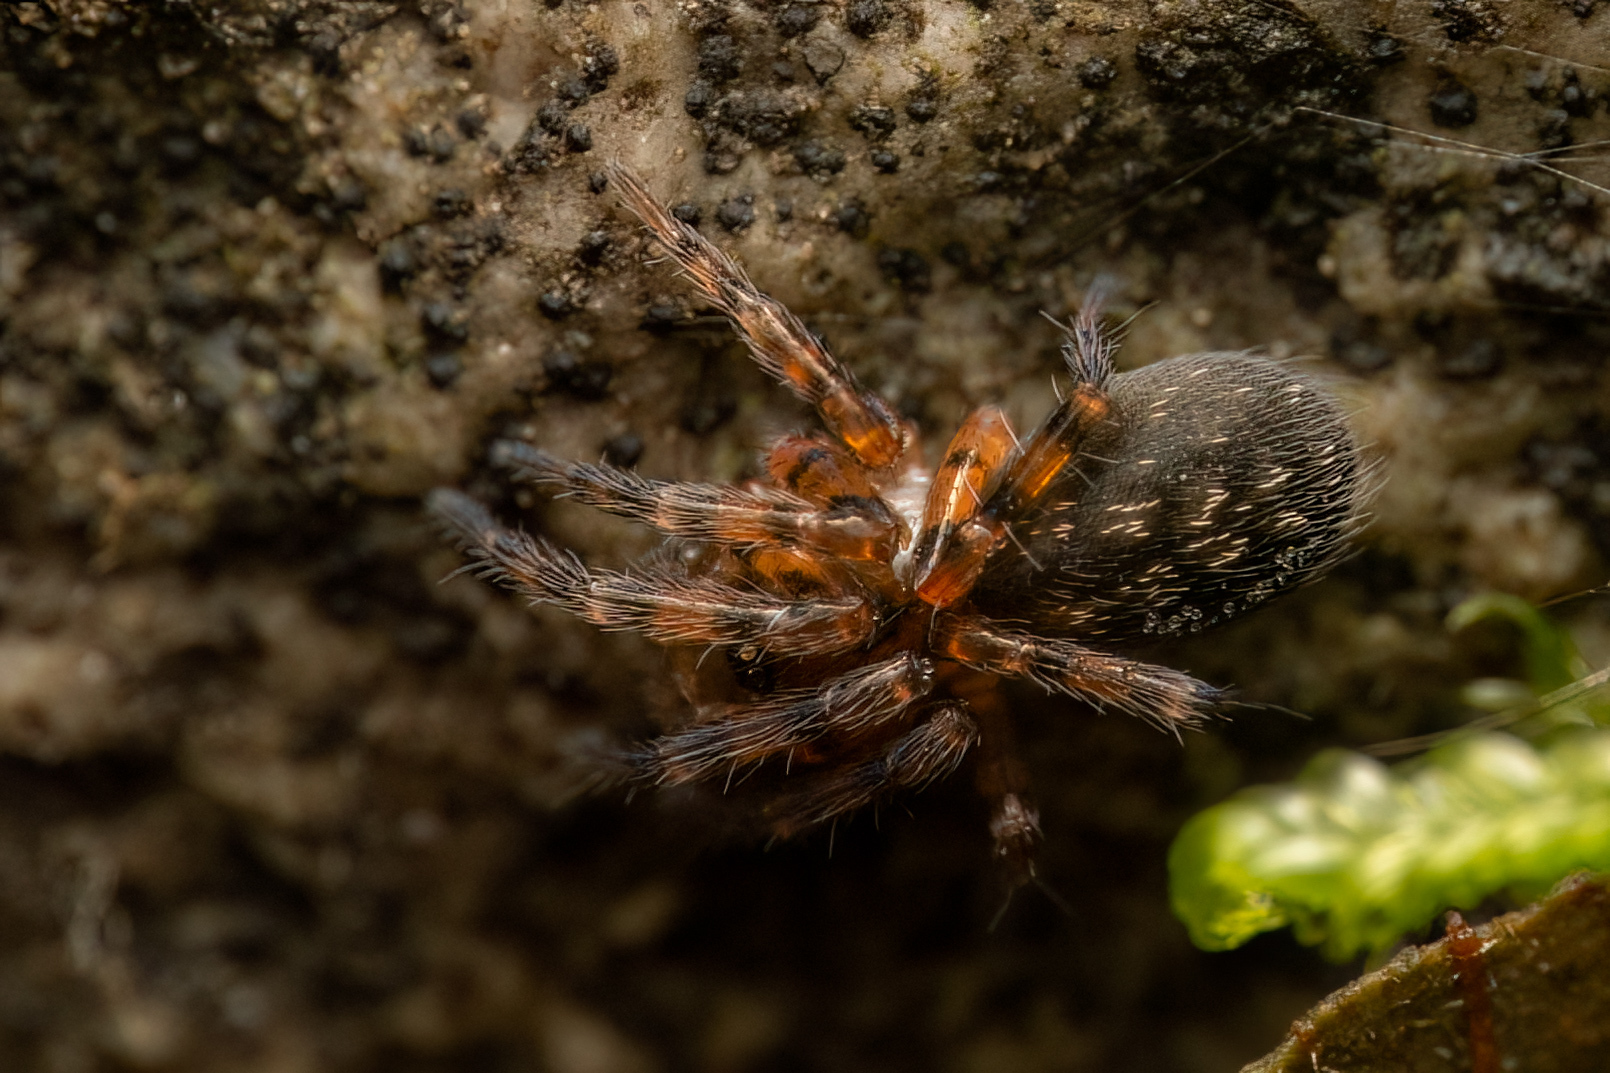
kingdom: Animalia
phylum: Arthropoda
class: Arachnida
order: Araneae
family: Cybaeidae
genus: Cryphoeca
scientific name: Cryphoeca exlineae
